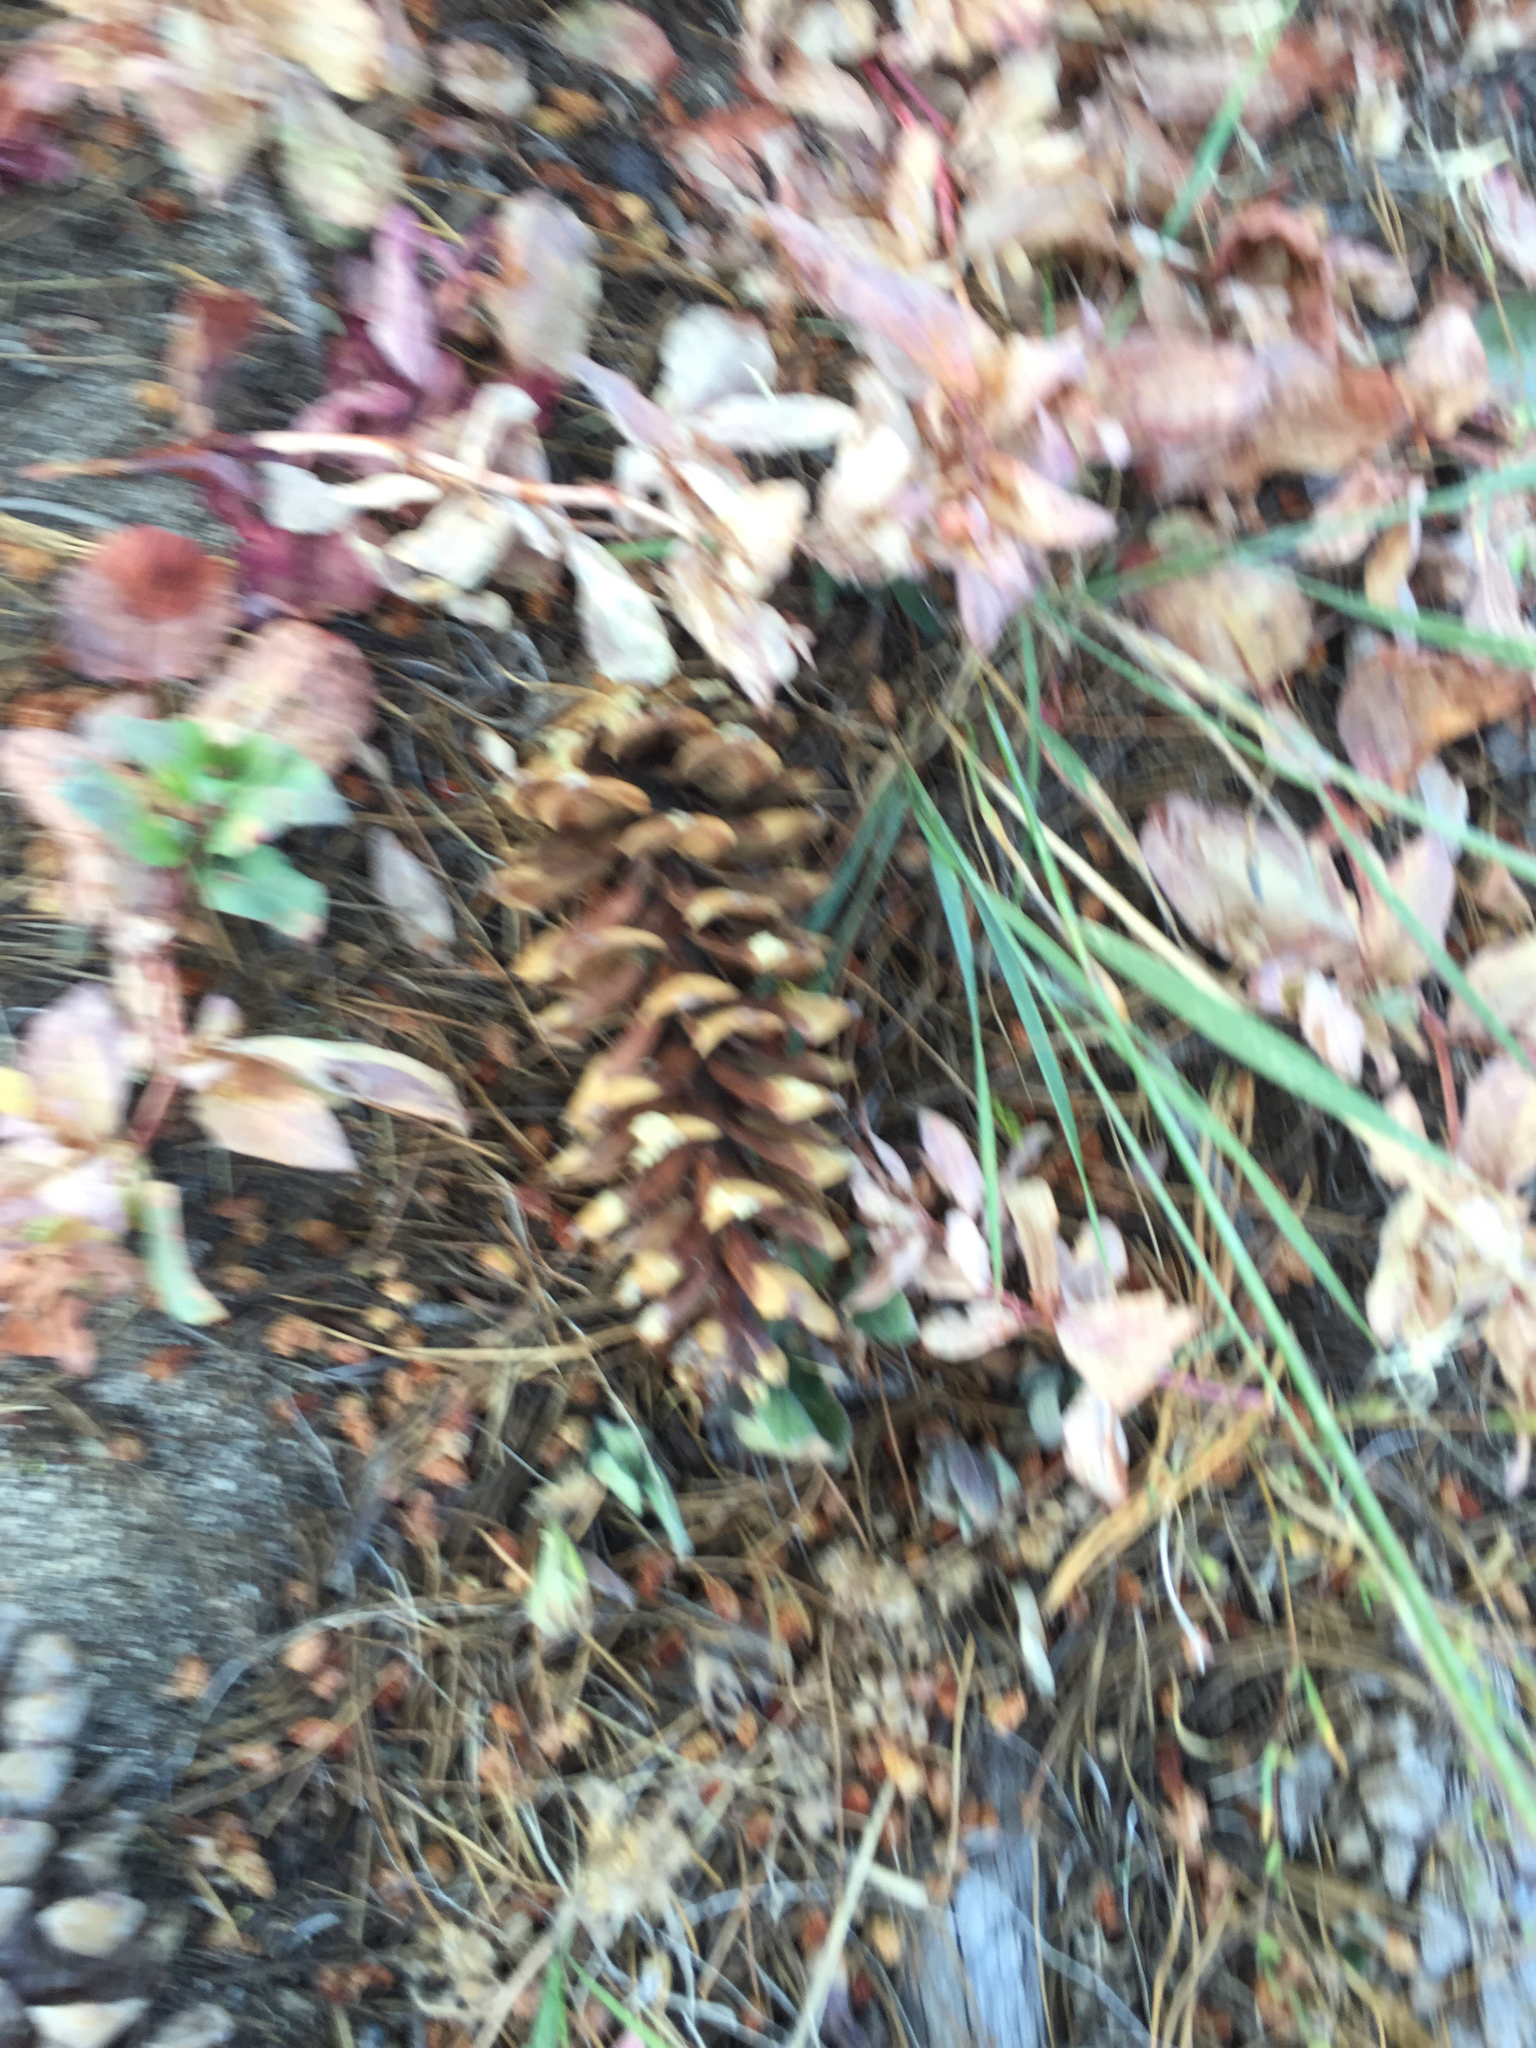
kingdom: Plantae
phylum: Tracheophyta
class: Pinopsida
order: Pinales
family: Pinaceae
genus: Pinus
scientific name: Pinus monticola
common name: Western white pine
